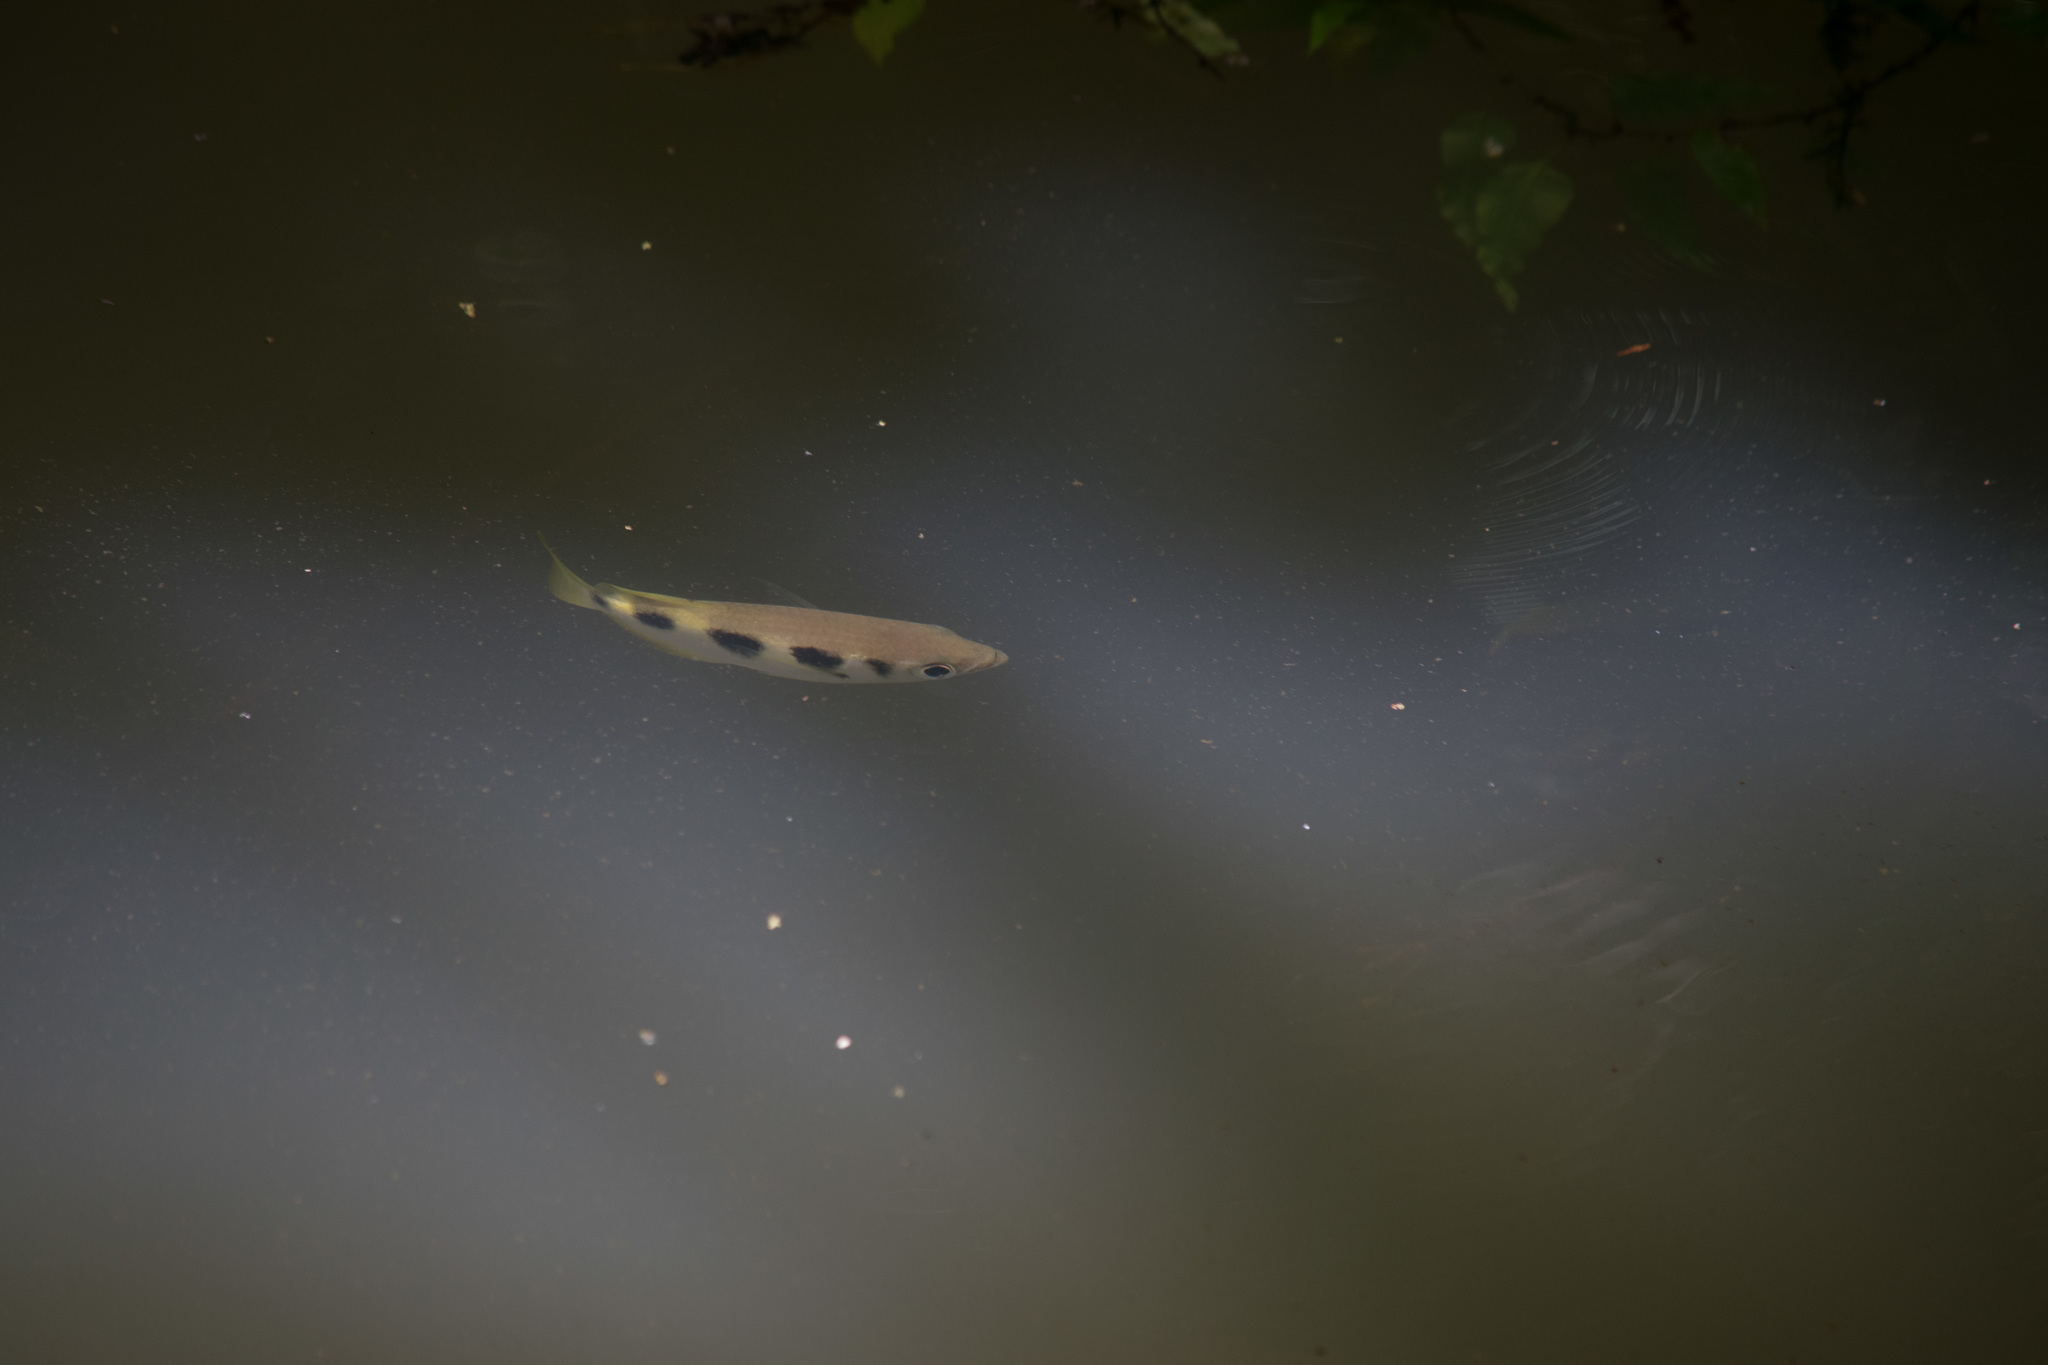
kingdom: Animalia
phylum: Chordata
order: Perciformes
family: Toxotidae
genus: Toxotes
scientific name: Toxotes jaculatrix
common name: Banded archerfish
